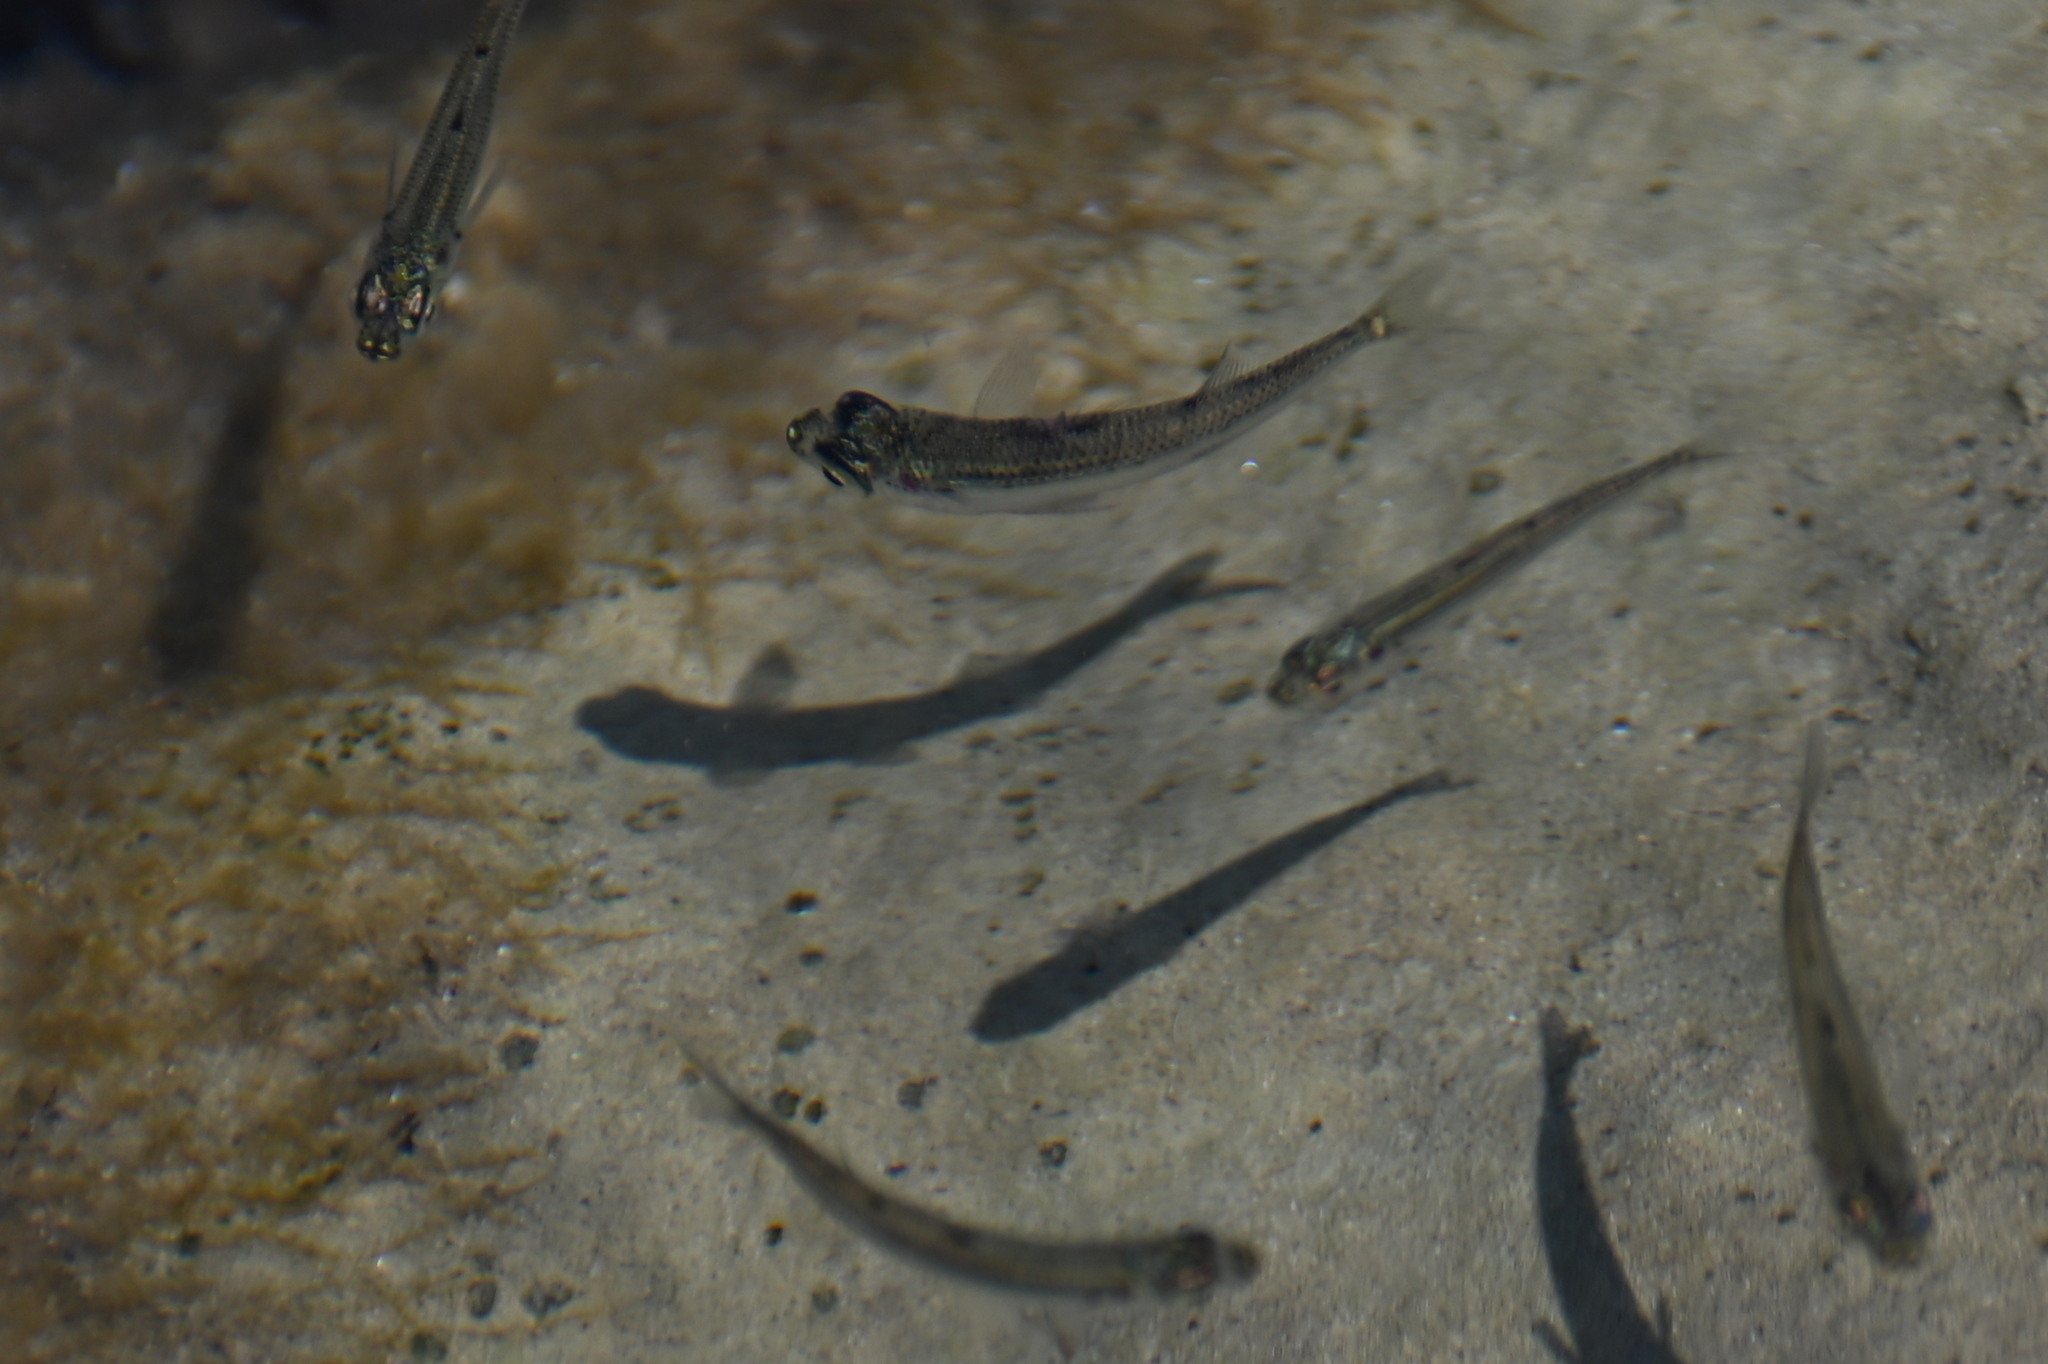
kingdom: Animalia
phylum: Chordata
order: Atheriniformes
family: Atherinidae
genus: Atherina
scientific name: Atherina boyeri
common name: Big-scale sand smelt
